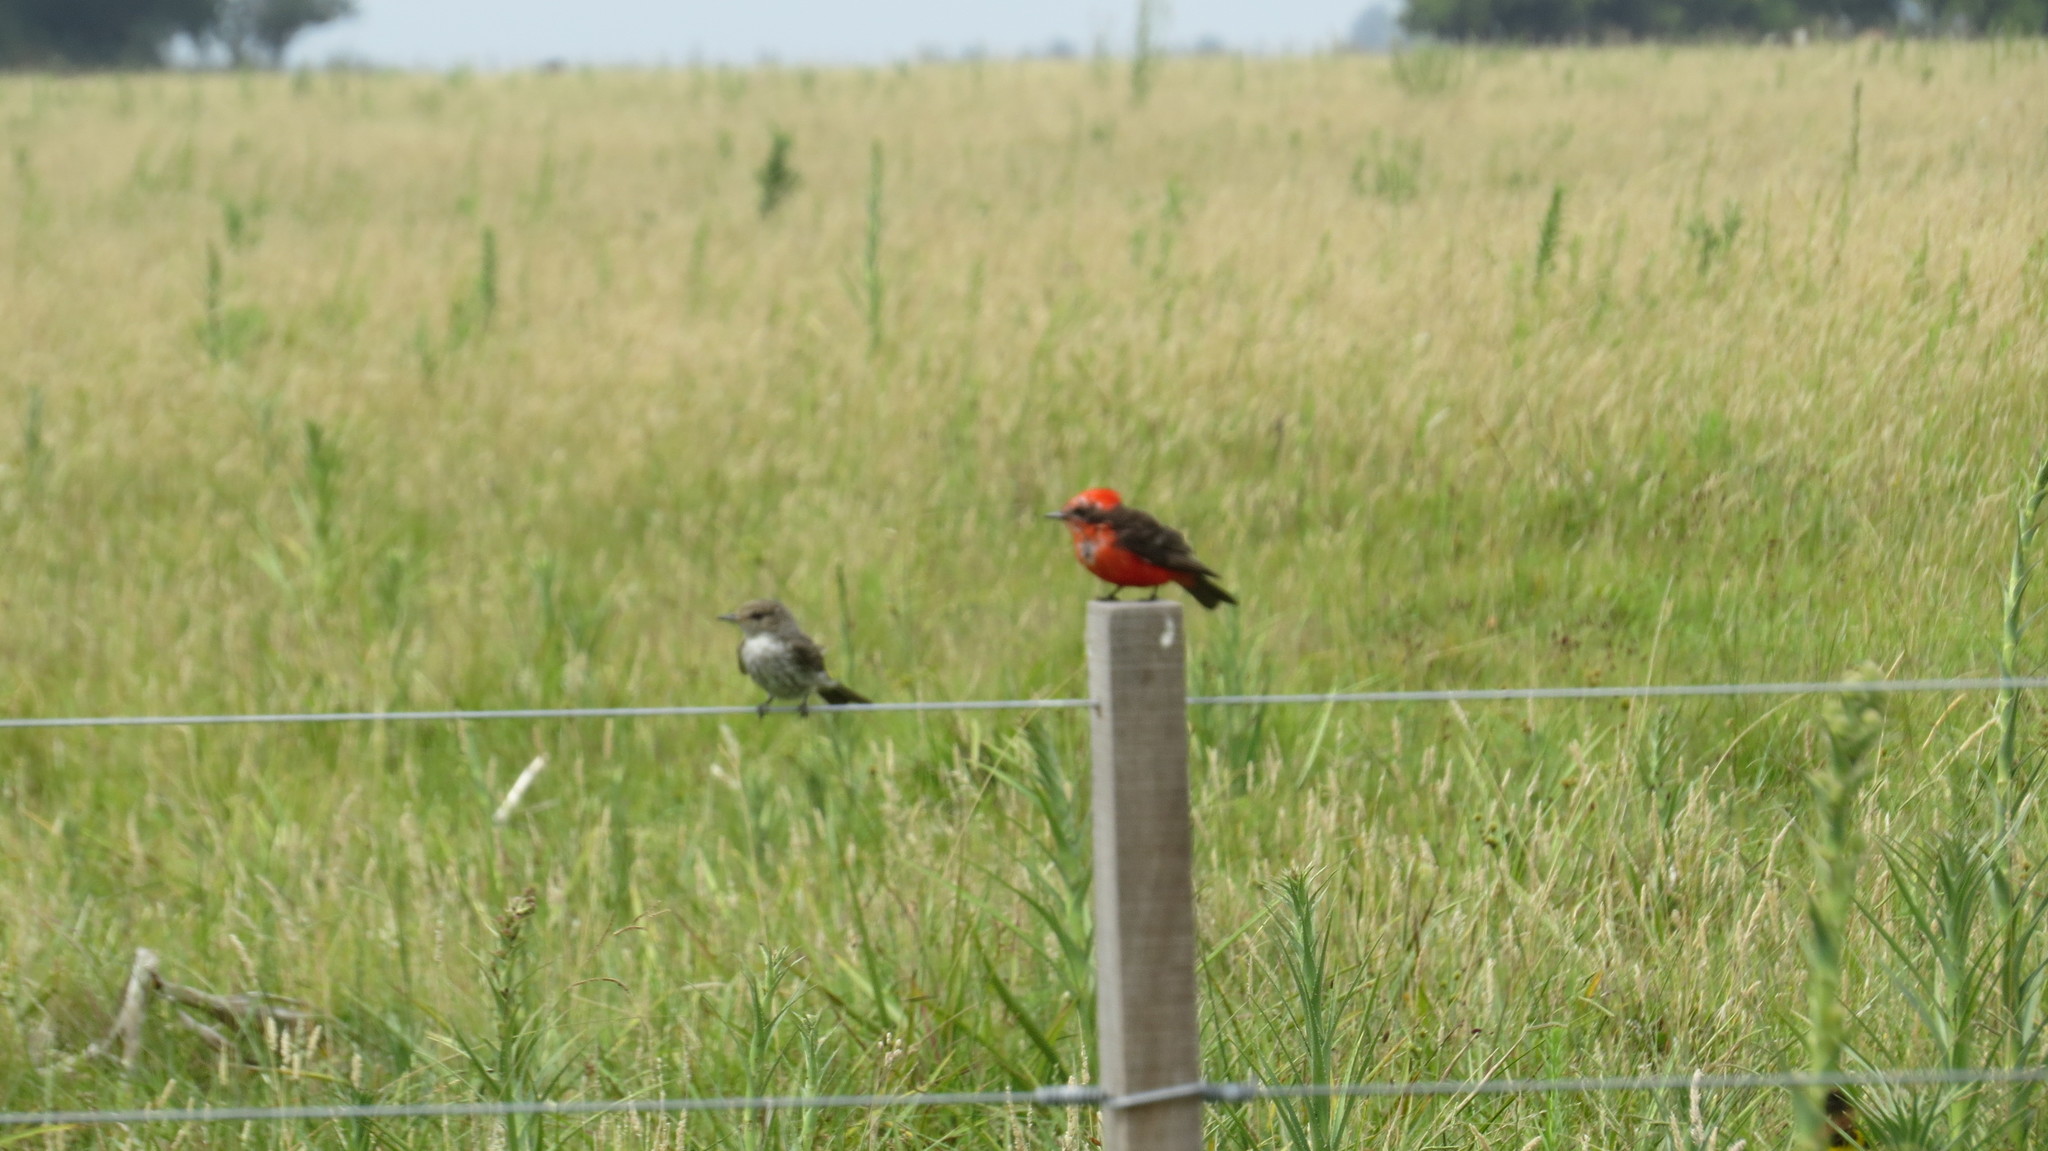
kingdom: Animalia
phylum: Chordata
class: Aves
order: Passeriformes
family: Tyrannidae
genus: Pyrocephalus
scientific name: Pyrocephalus rubinus
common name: Vermilion flycatcher
